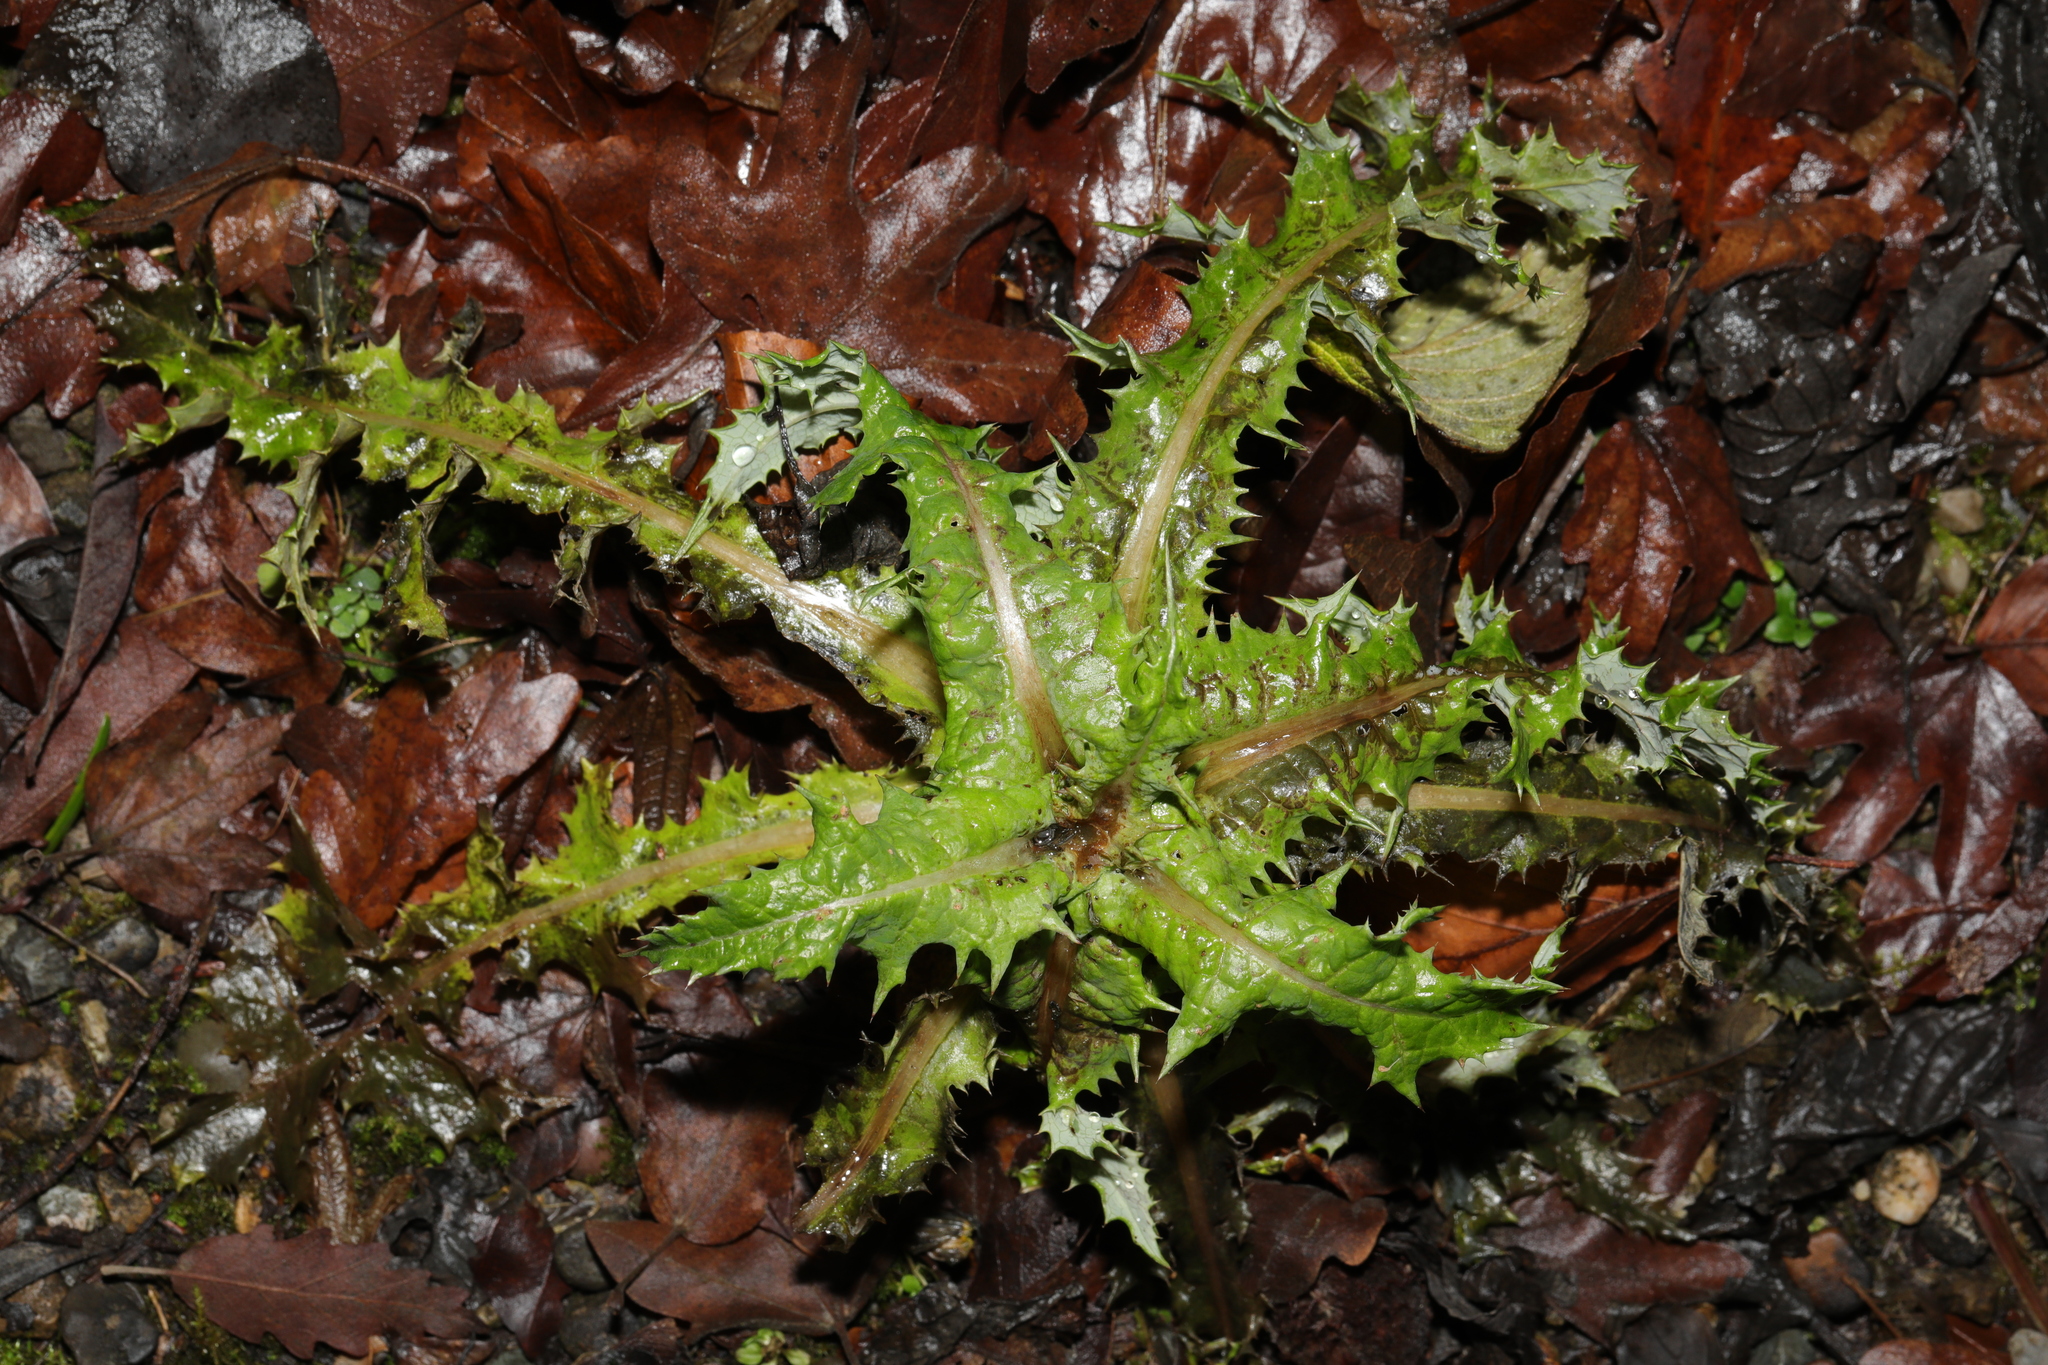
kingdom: Plantae
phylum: Tracheophyta
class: Magnoliopsida
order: Asterales
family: Asteraceae
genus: Sonchus
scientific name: Sonchus asper
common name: Prickly sow-thistle
